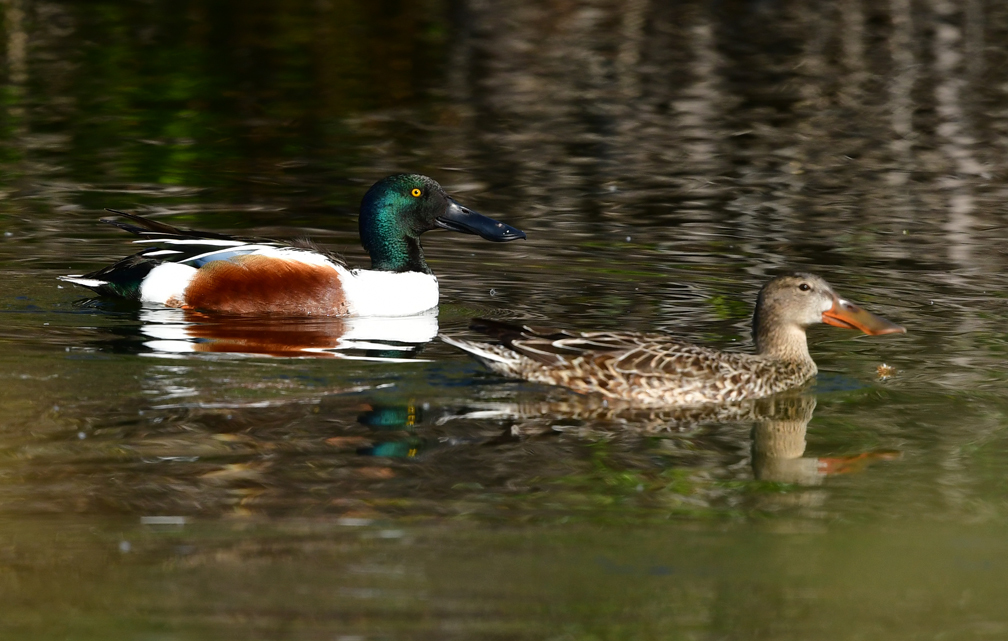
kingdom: Animalia
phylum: Chordata
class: Aves
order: Anseriformes
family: Anatidae
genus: Spatula
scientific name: Spatula clypeata
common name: Northern shoveler
